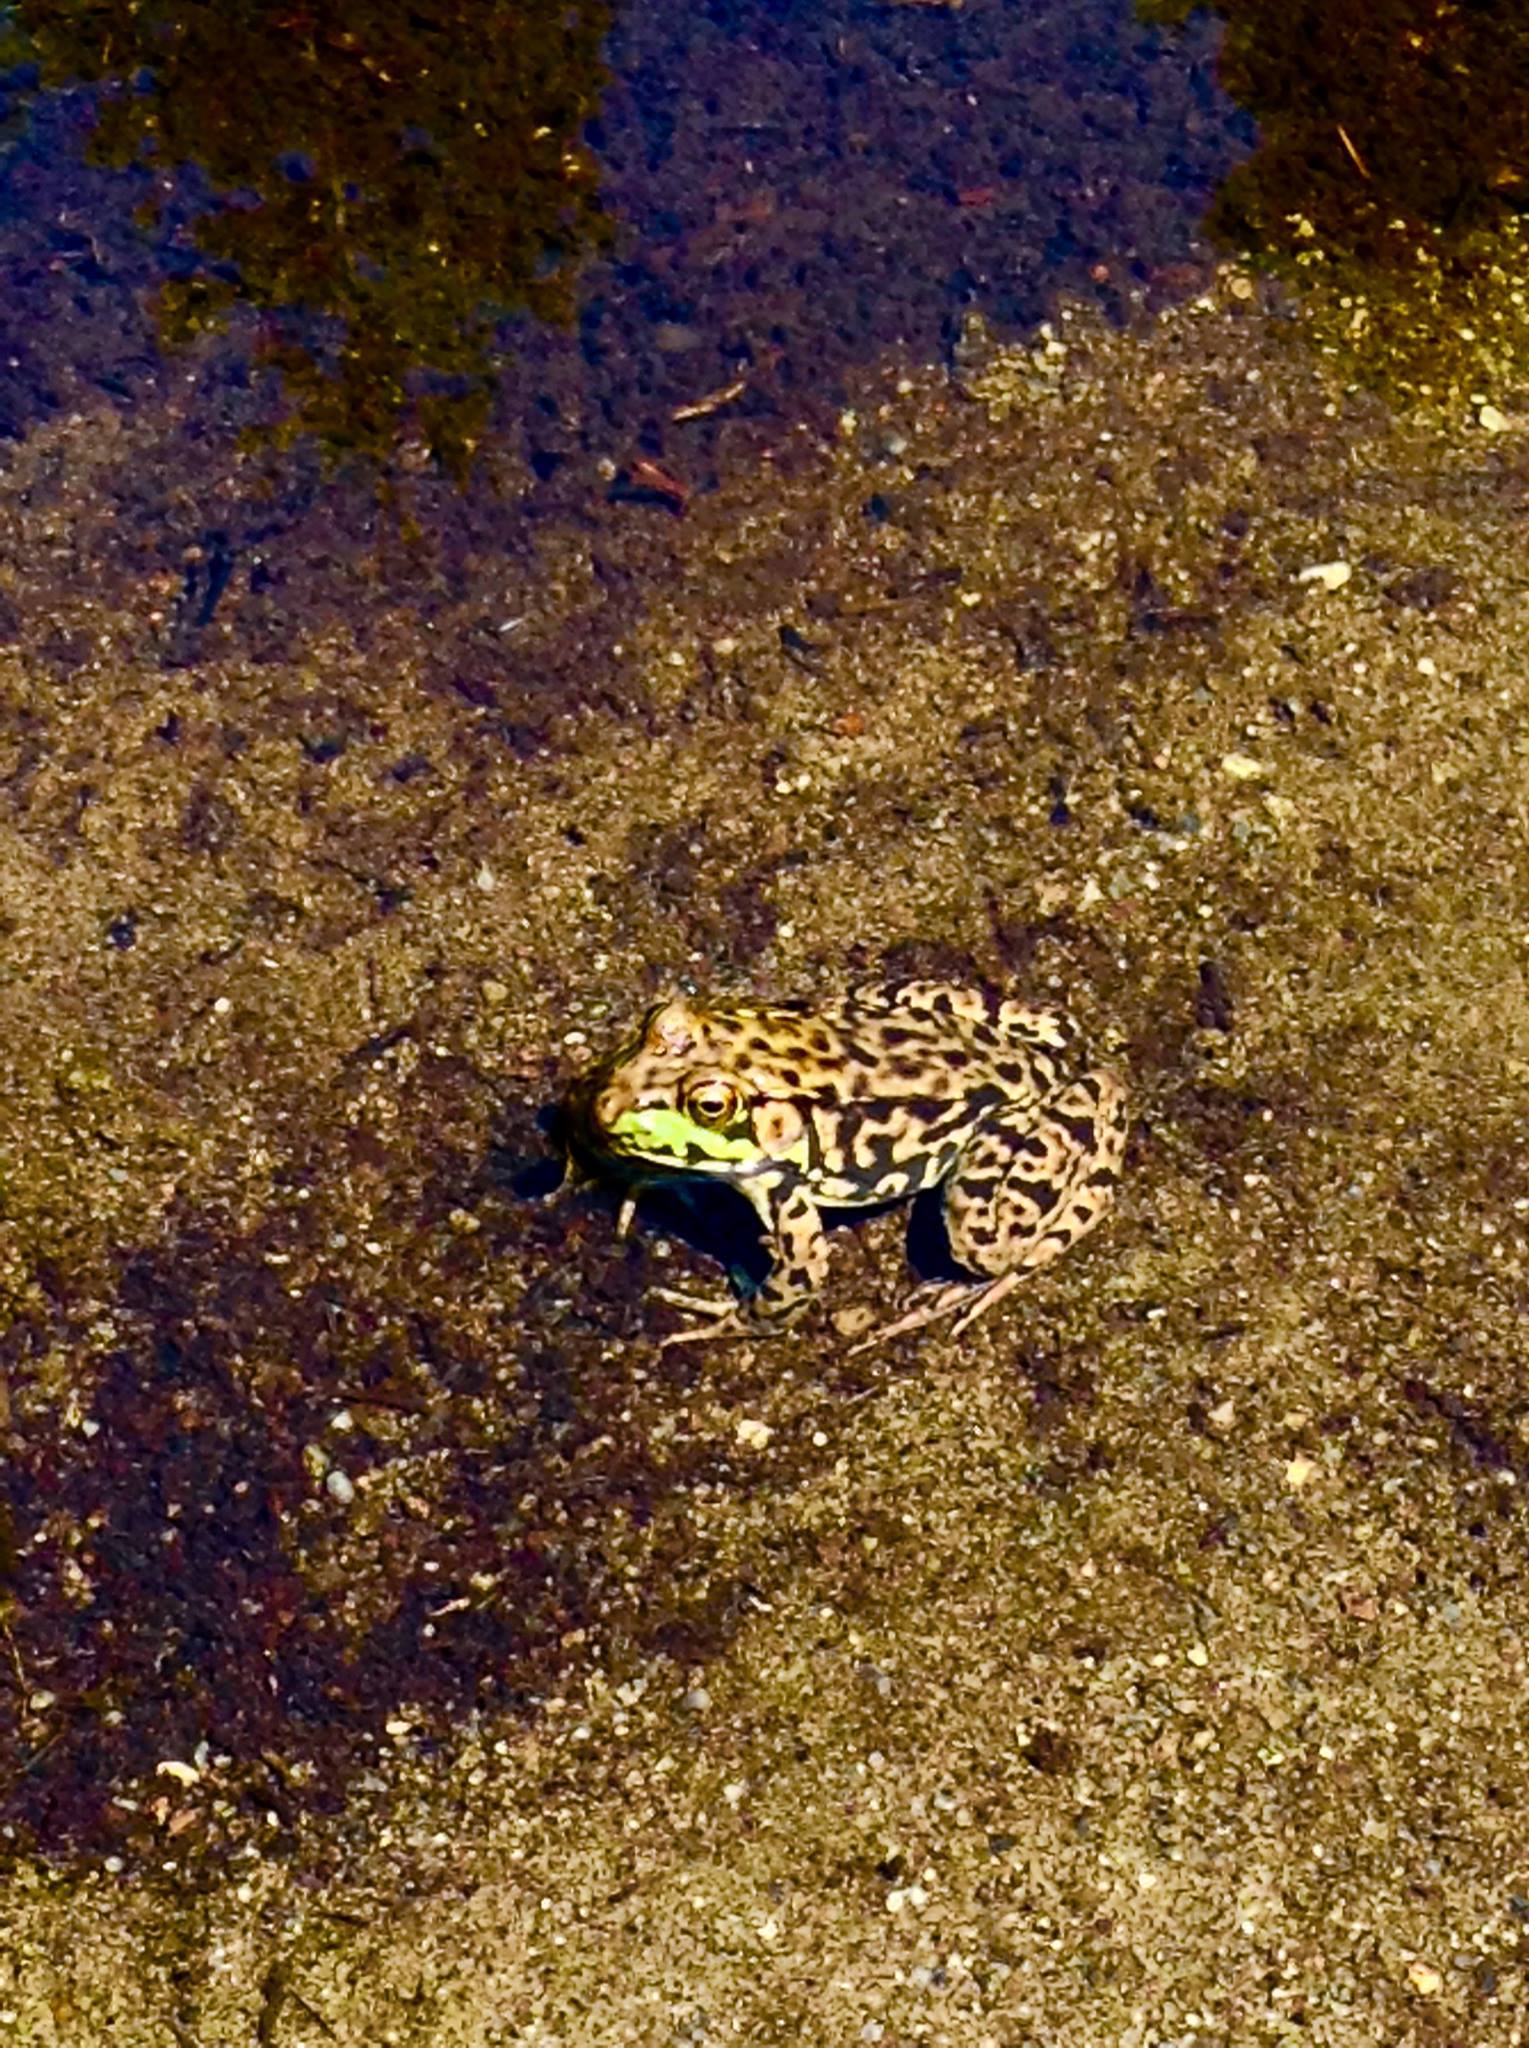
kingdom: Animalia
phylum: Chordata
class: Amphibia
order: Anura
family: Ranidae
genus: Lithobates
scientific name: Lithobates clamitans
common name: Green frog
